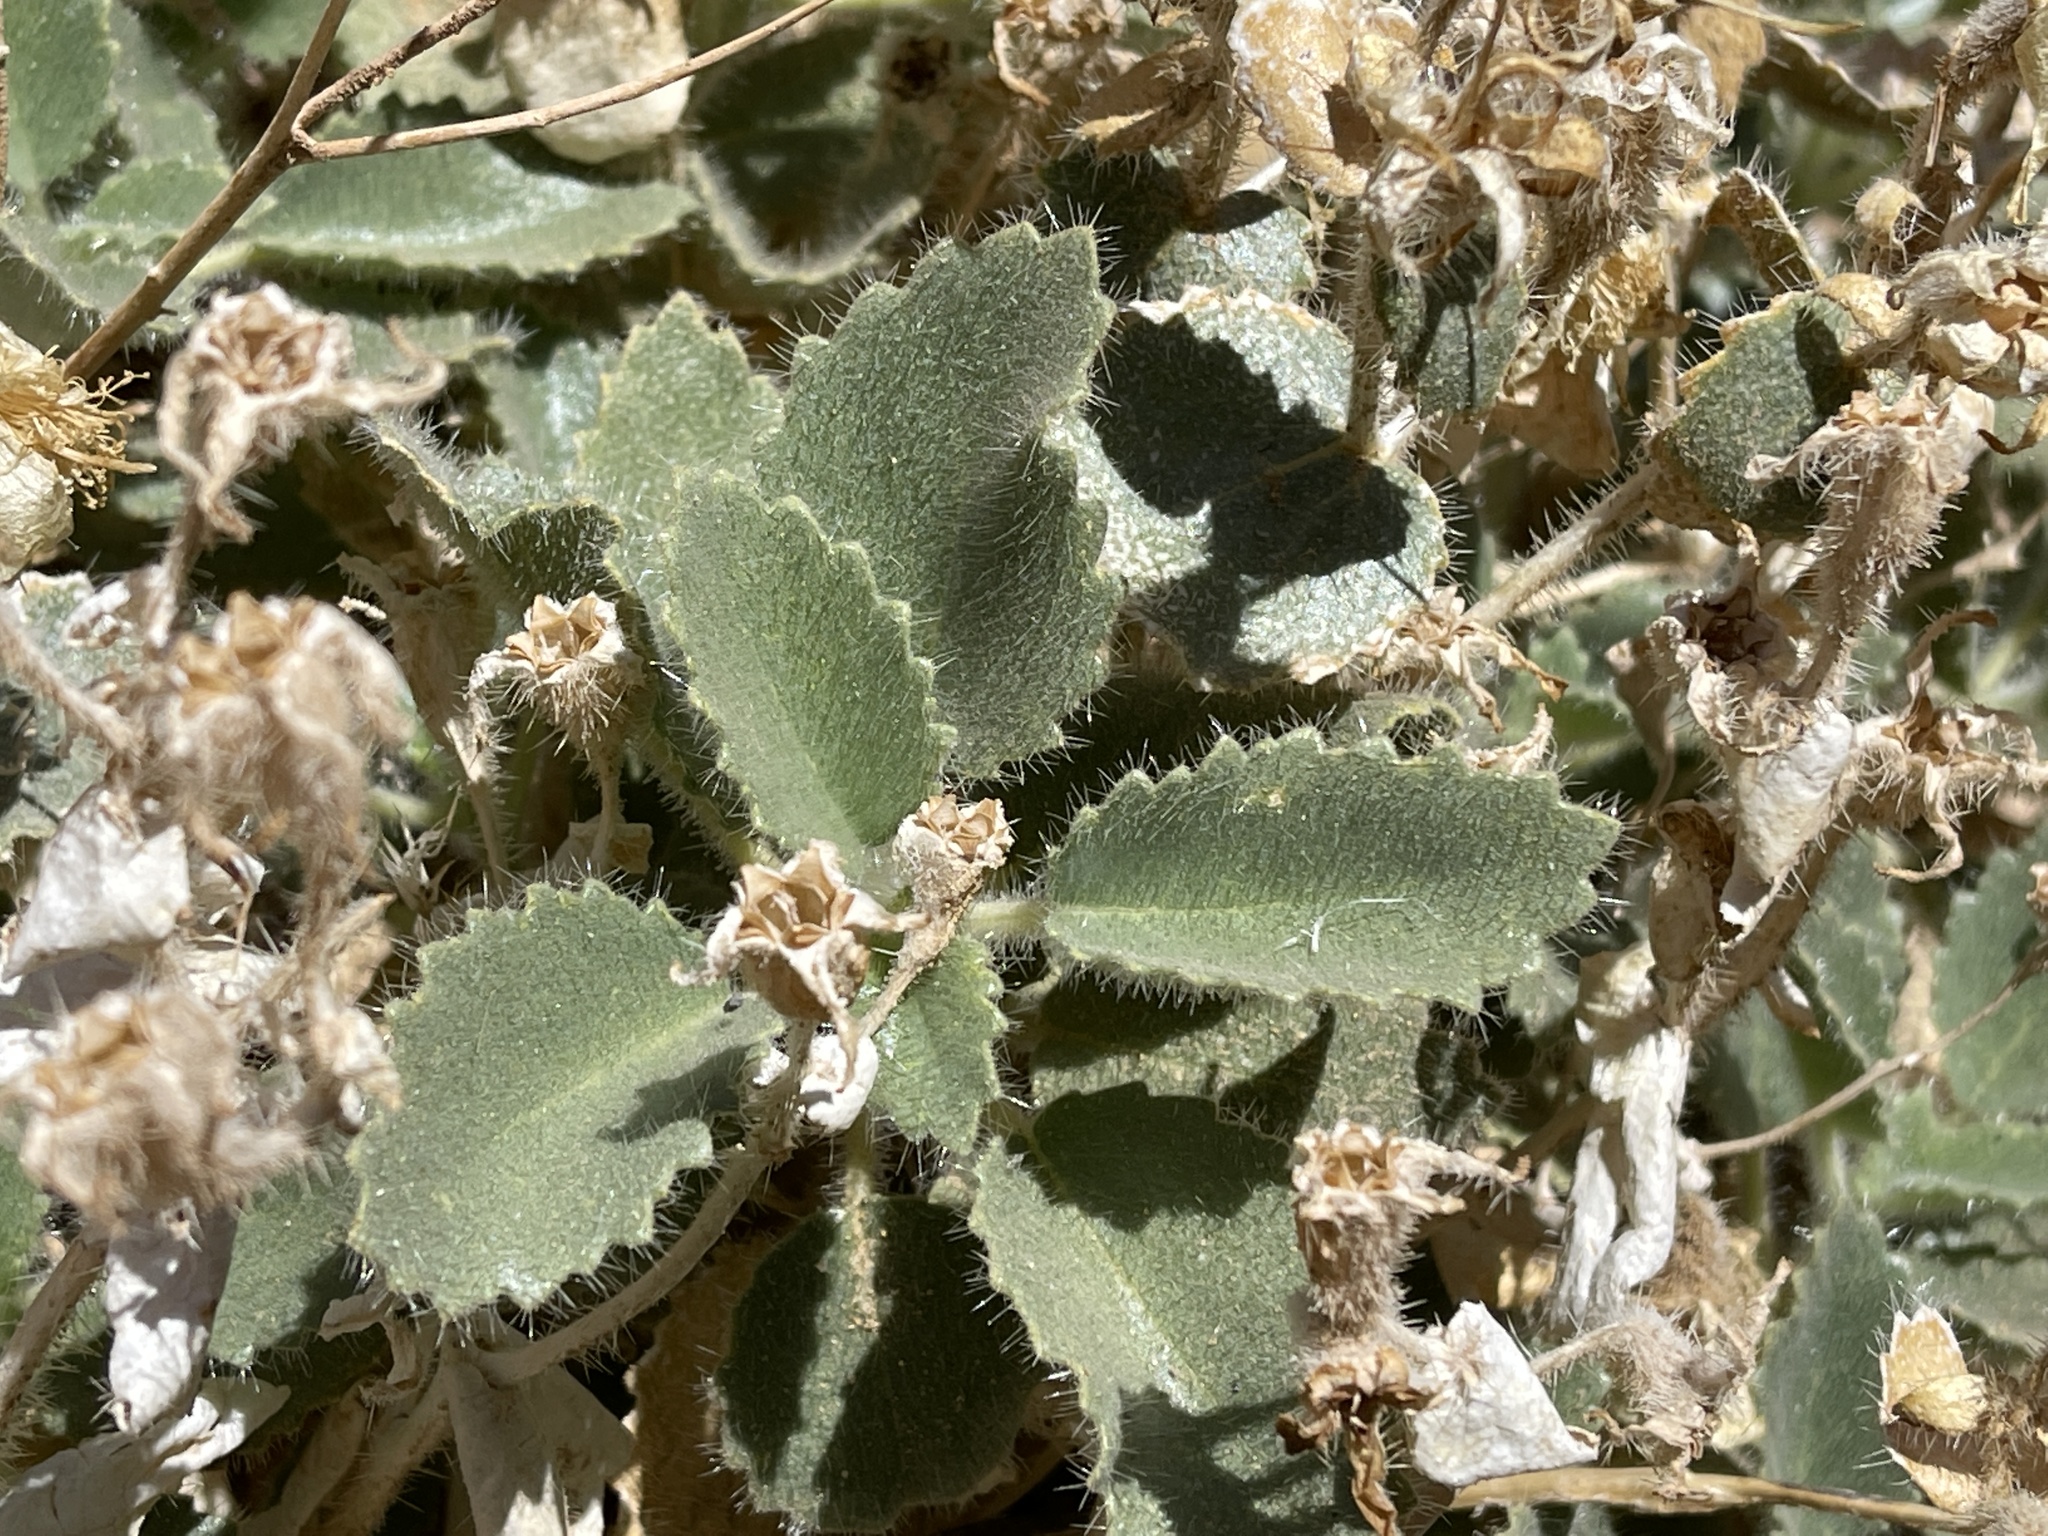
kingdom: Plantae
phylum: Tracheophyta
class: Magnoliopsida
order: Cornales
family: Loasaceae
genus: Eucnide
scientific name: Eucnide urens
